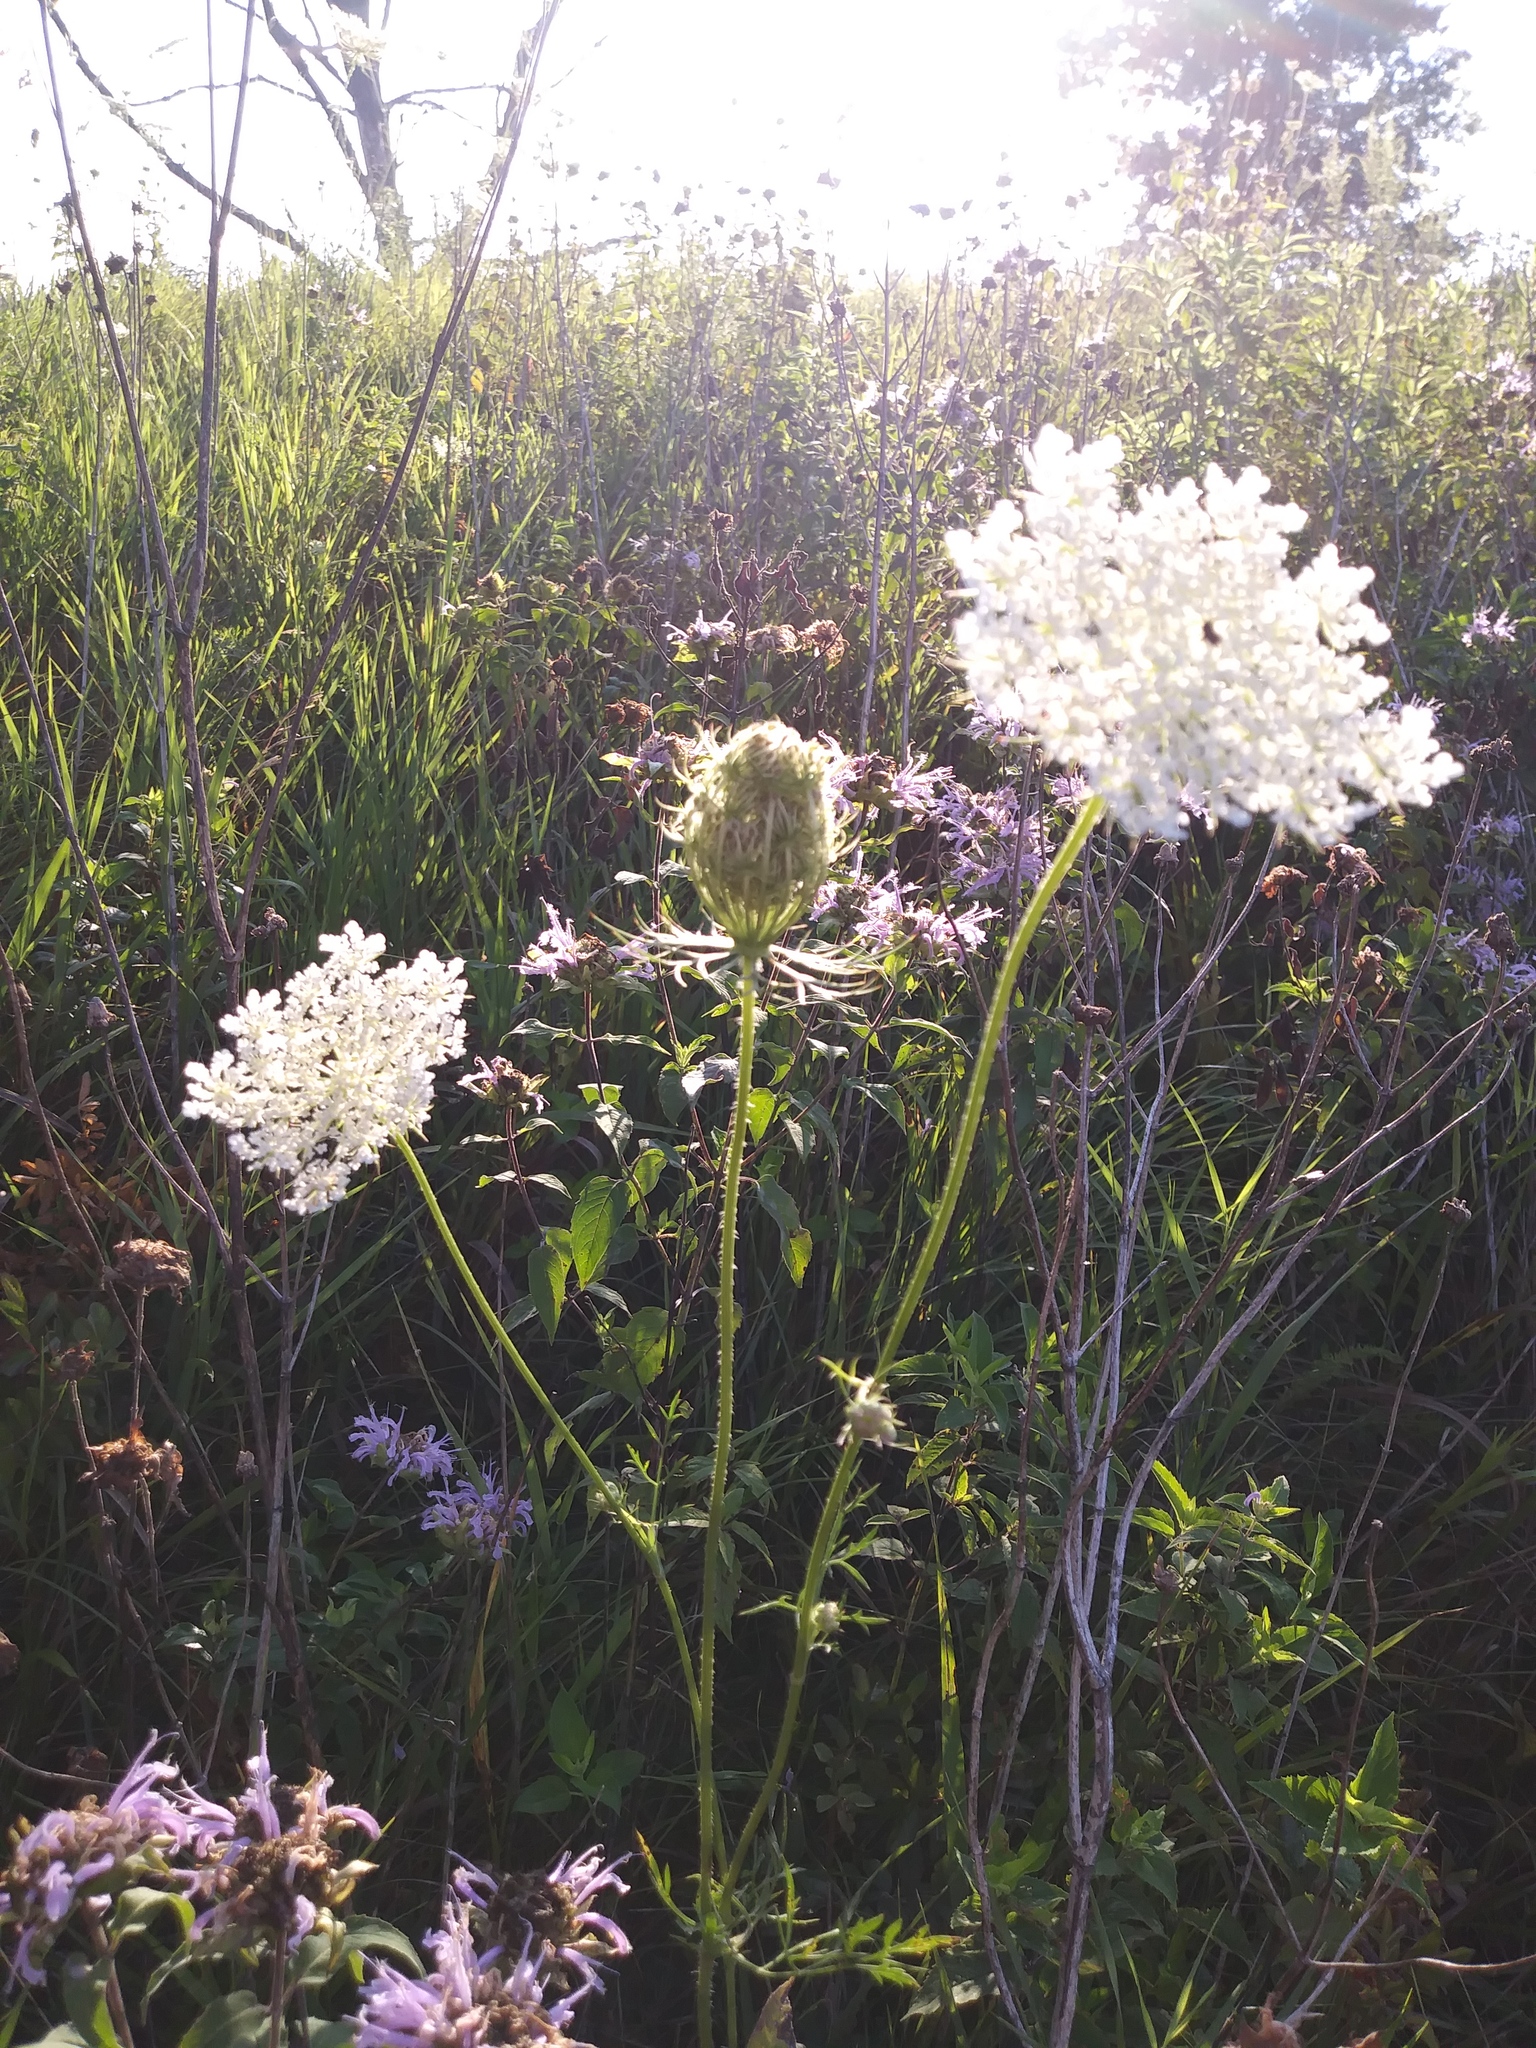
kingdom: Plantae
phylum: Tracheophyta
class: Magnoliopsida
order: Apiales
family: Apiaceae
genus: Daucus
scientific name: Daucus carota
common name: Wild carrot
